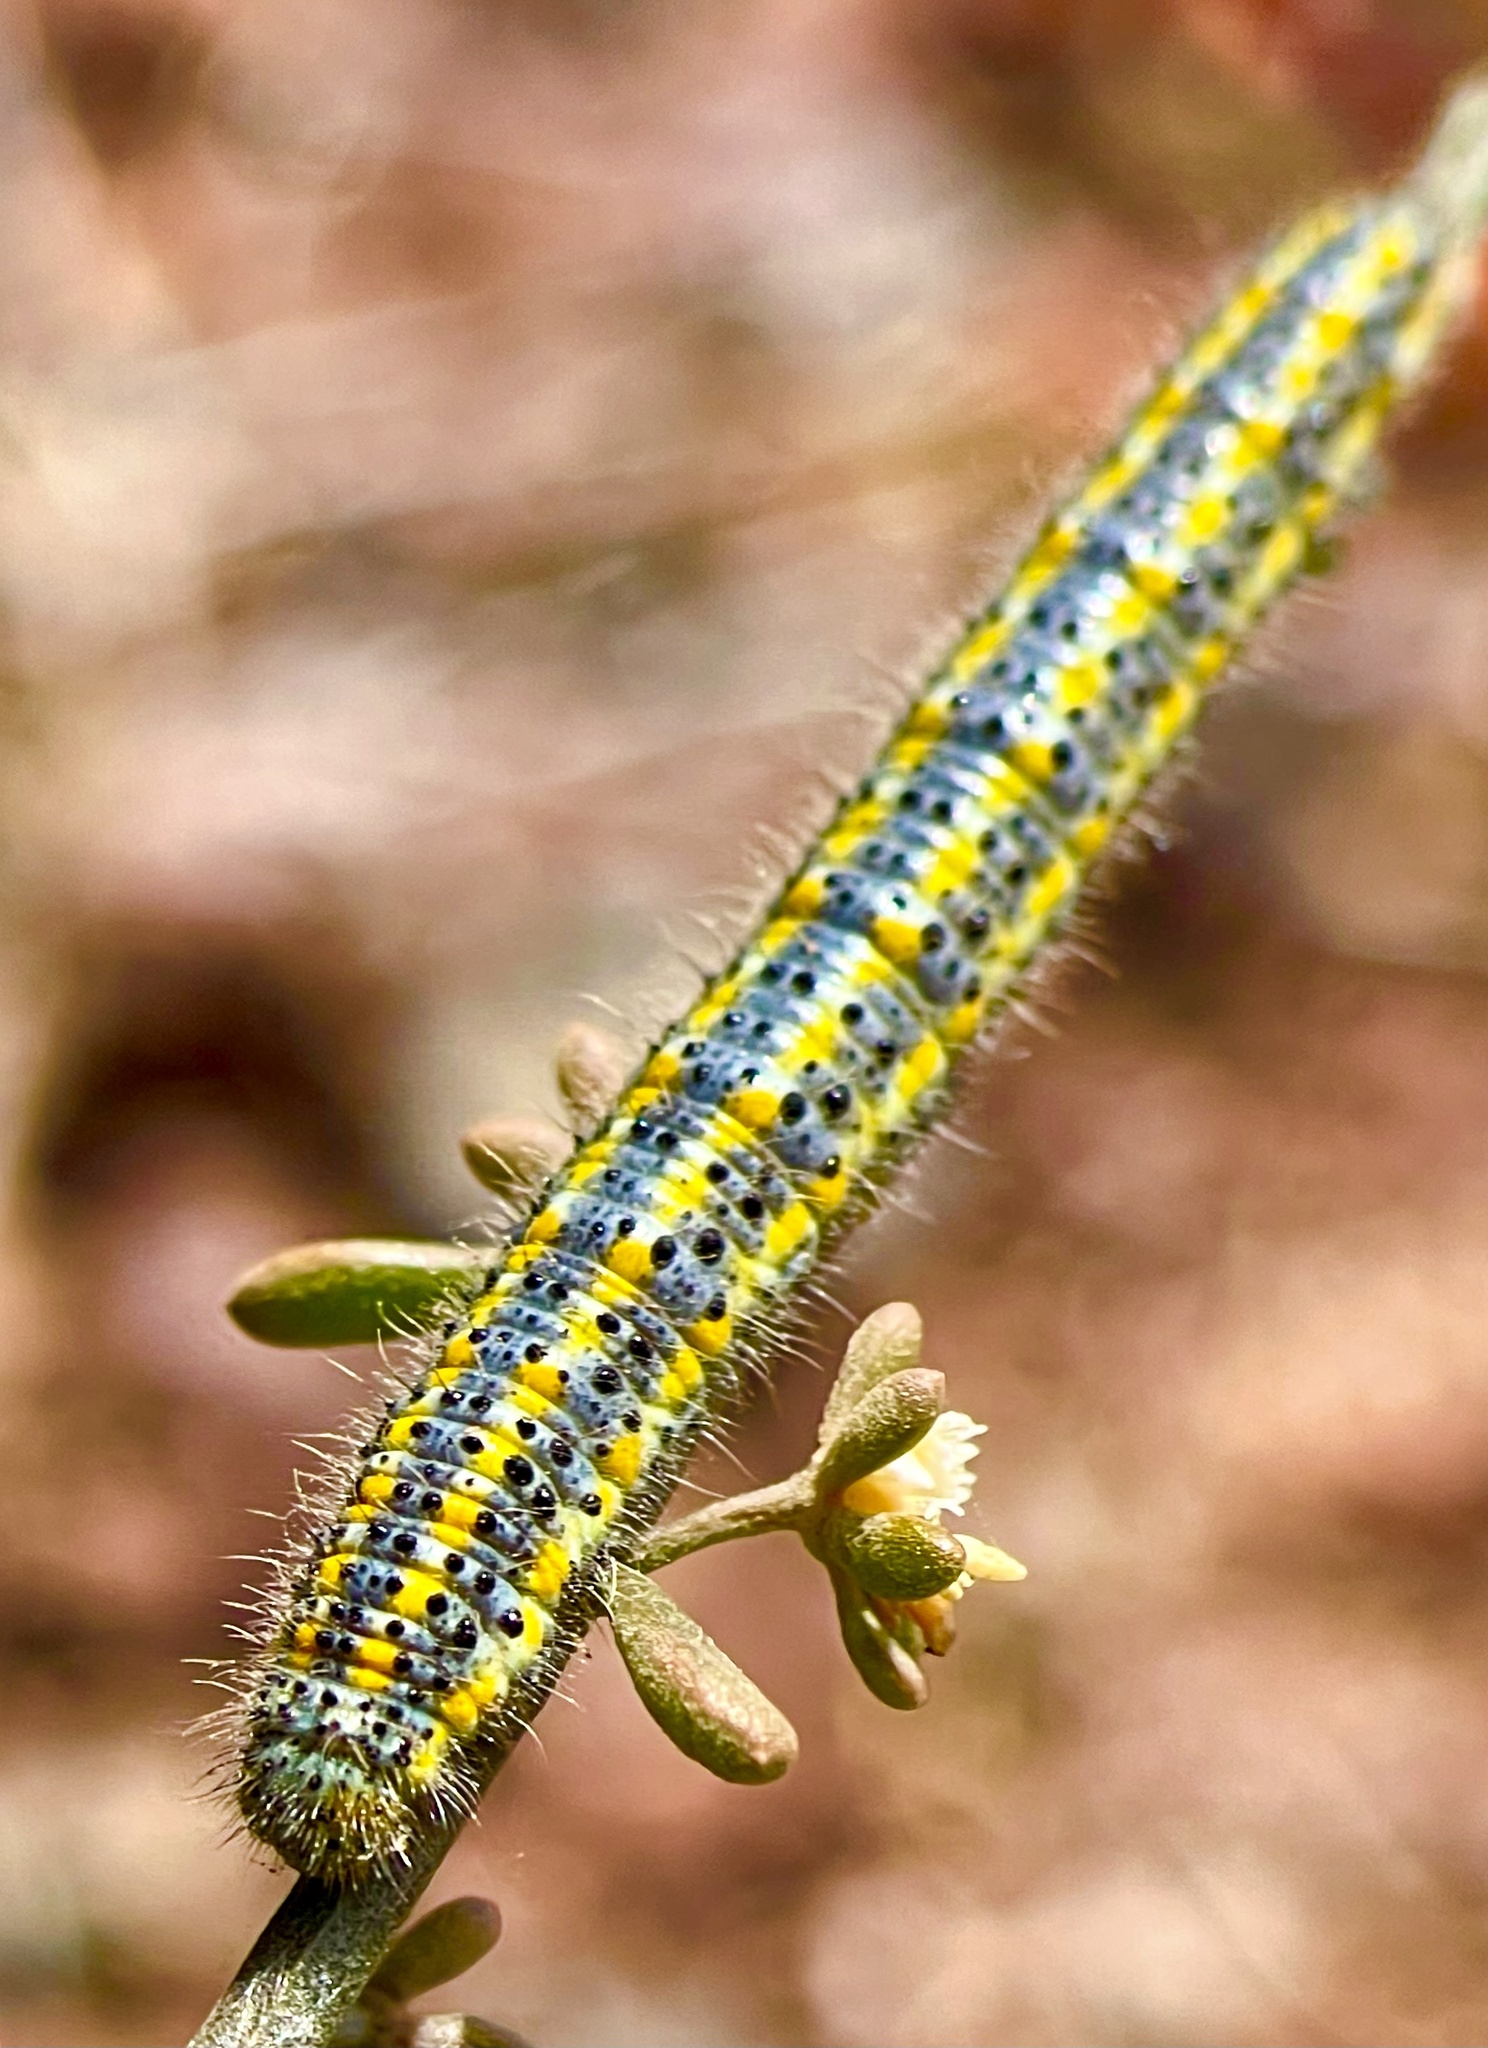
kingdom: Animalia
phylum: Arthropoda
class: Insecta
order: Lepidoptera
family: Pieridae
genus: Pontia
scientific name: Pontia daplidice
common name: Bath white
